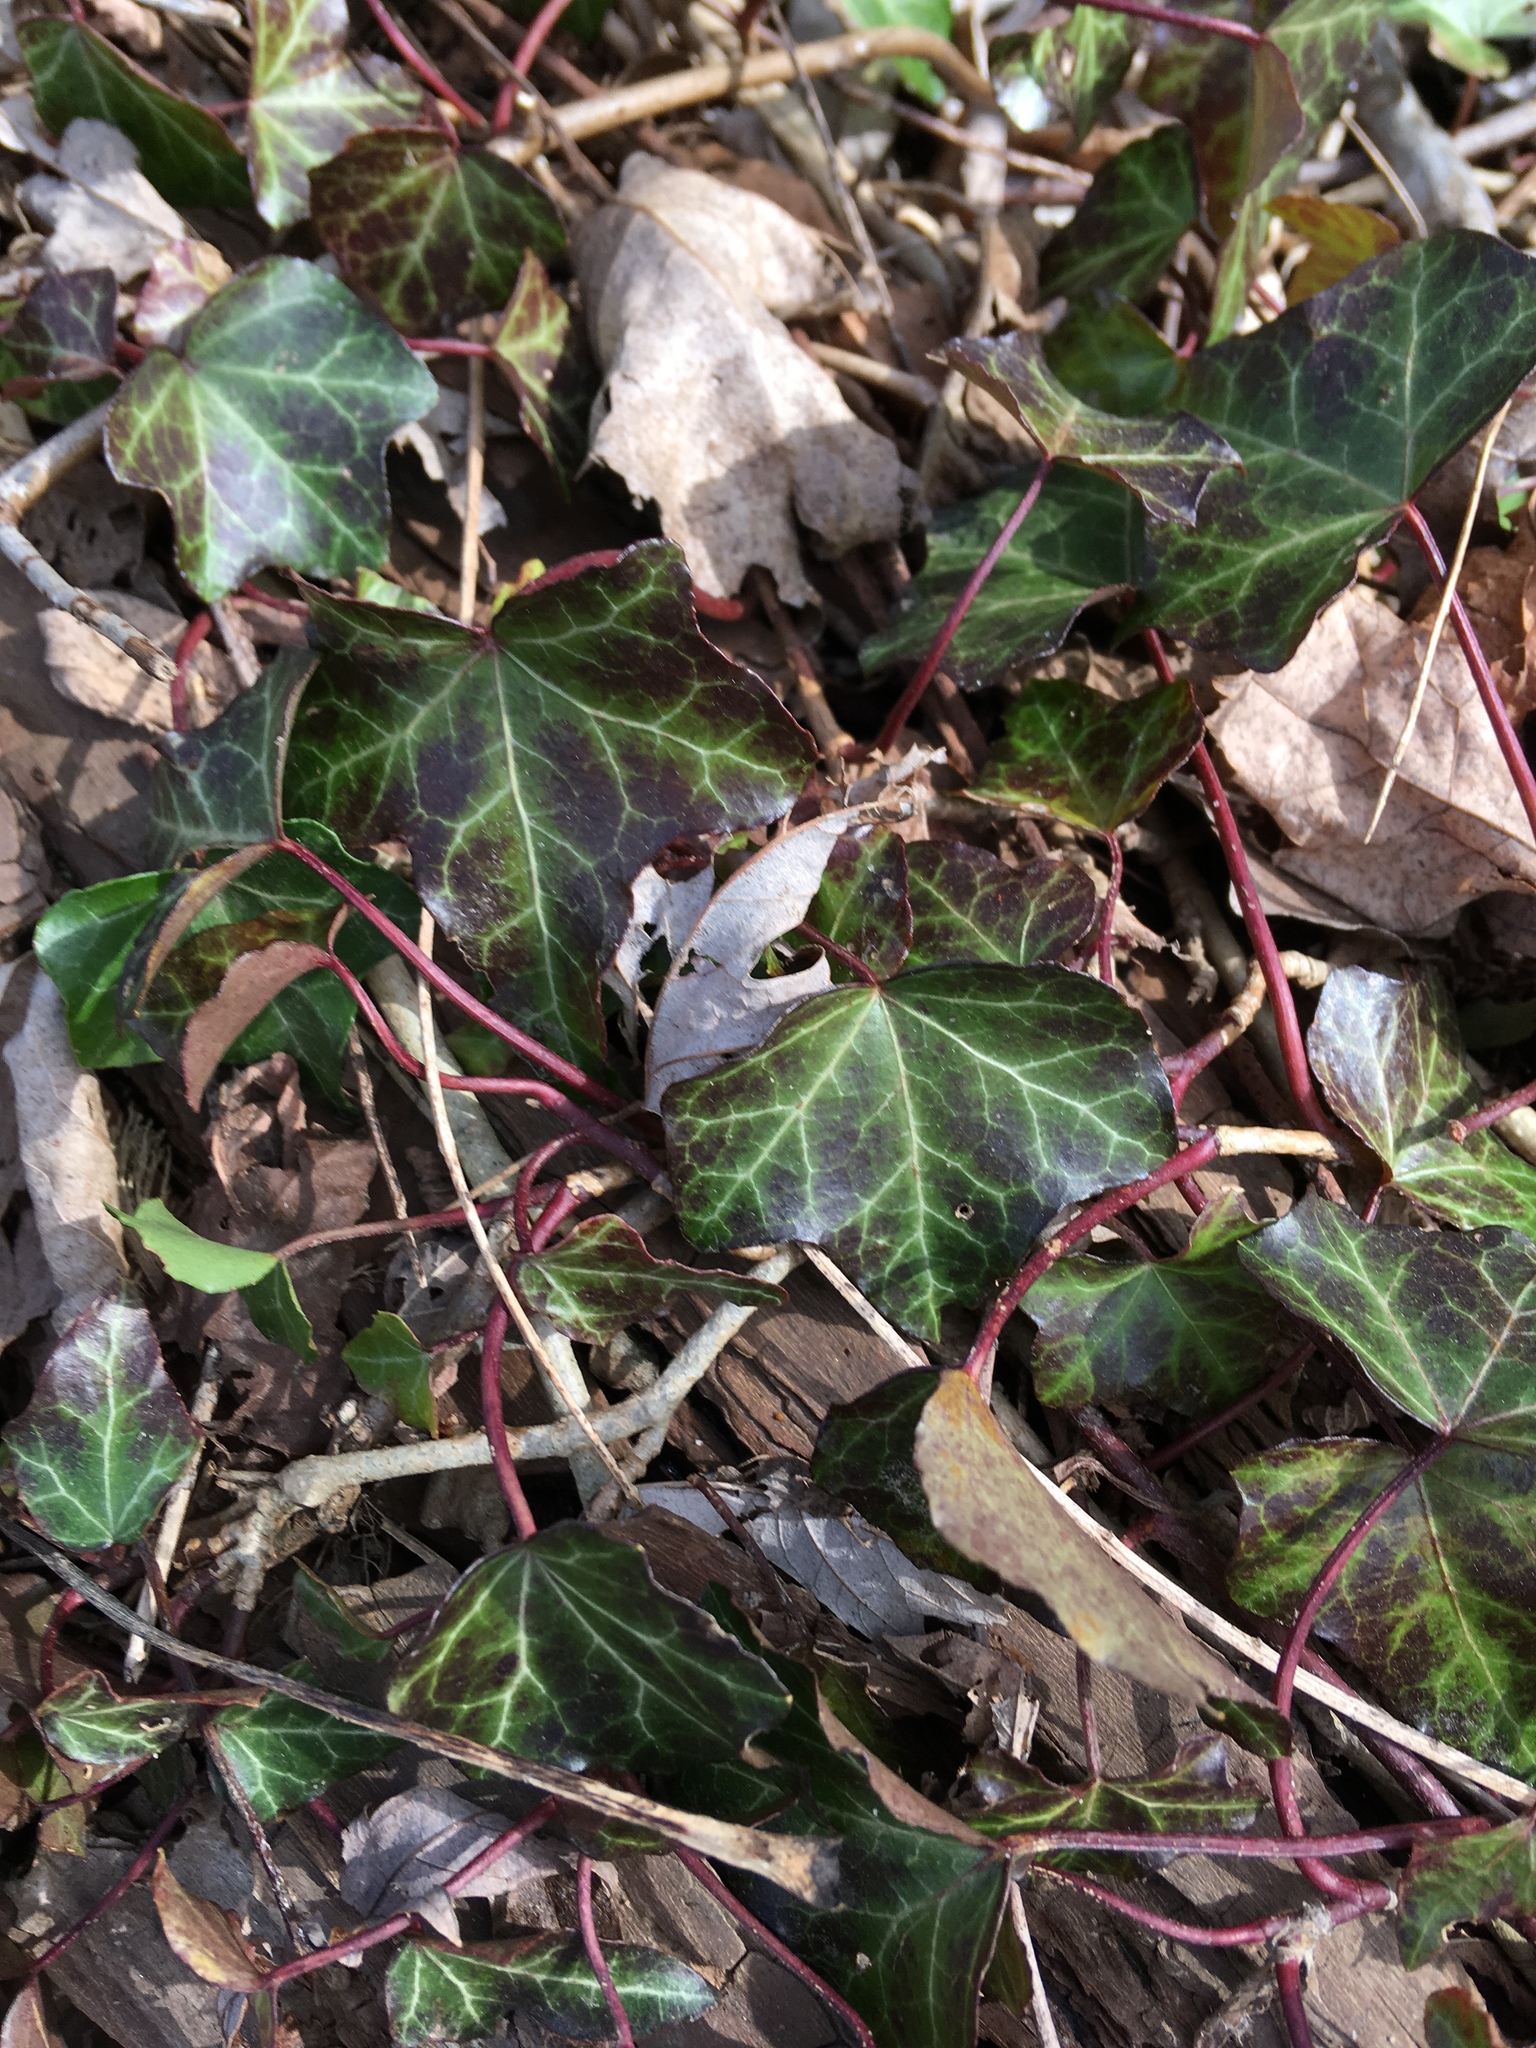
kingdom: Plantae
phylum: Tracheophyta
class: Magnoliopsida
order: Apiales
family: Araliaceae
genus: Hedera
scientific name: Hedera helix
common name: Ivy
